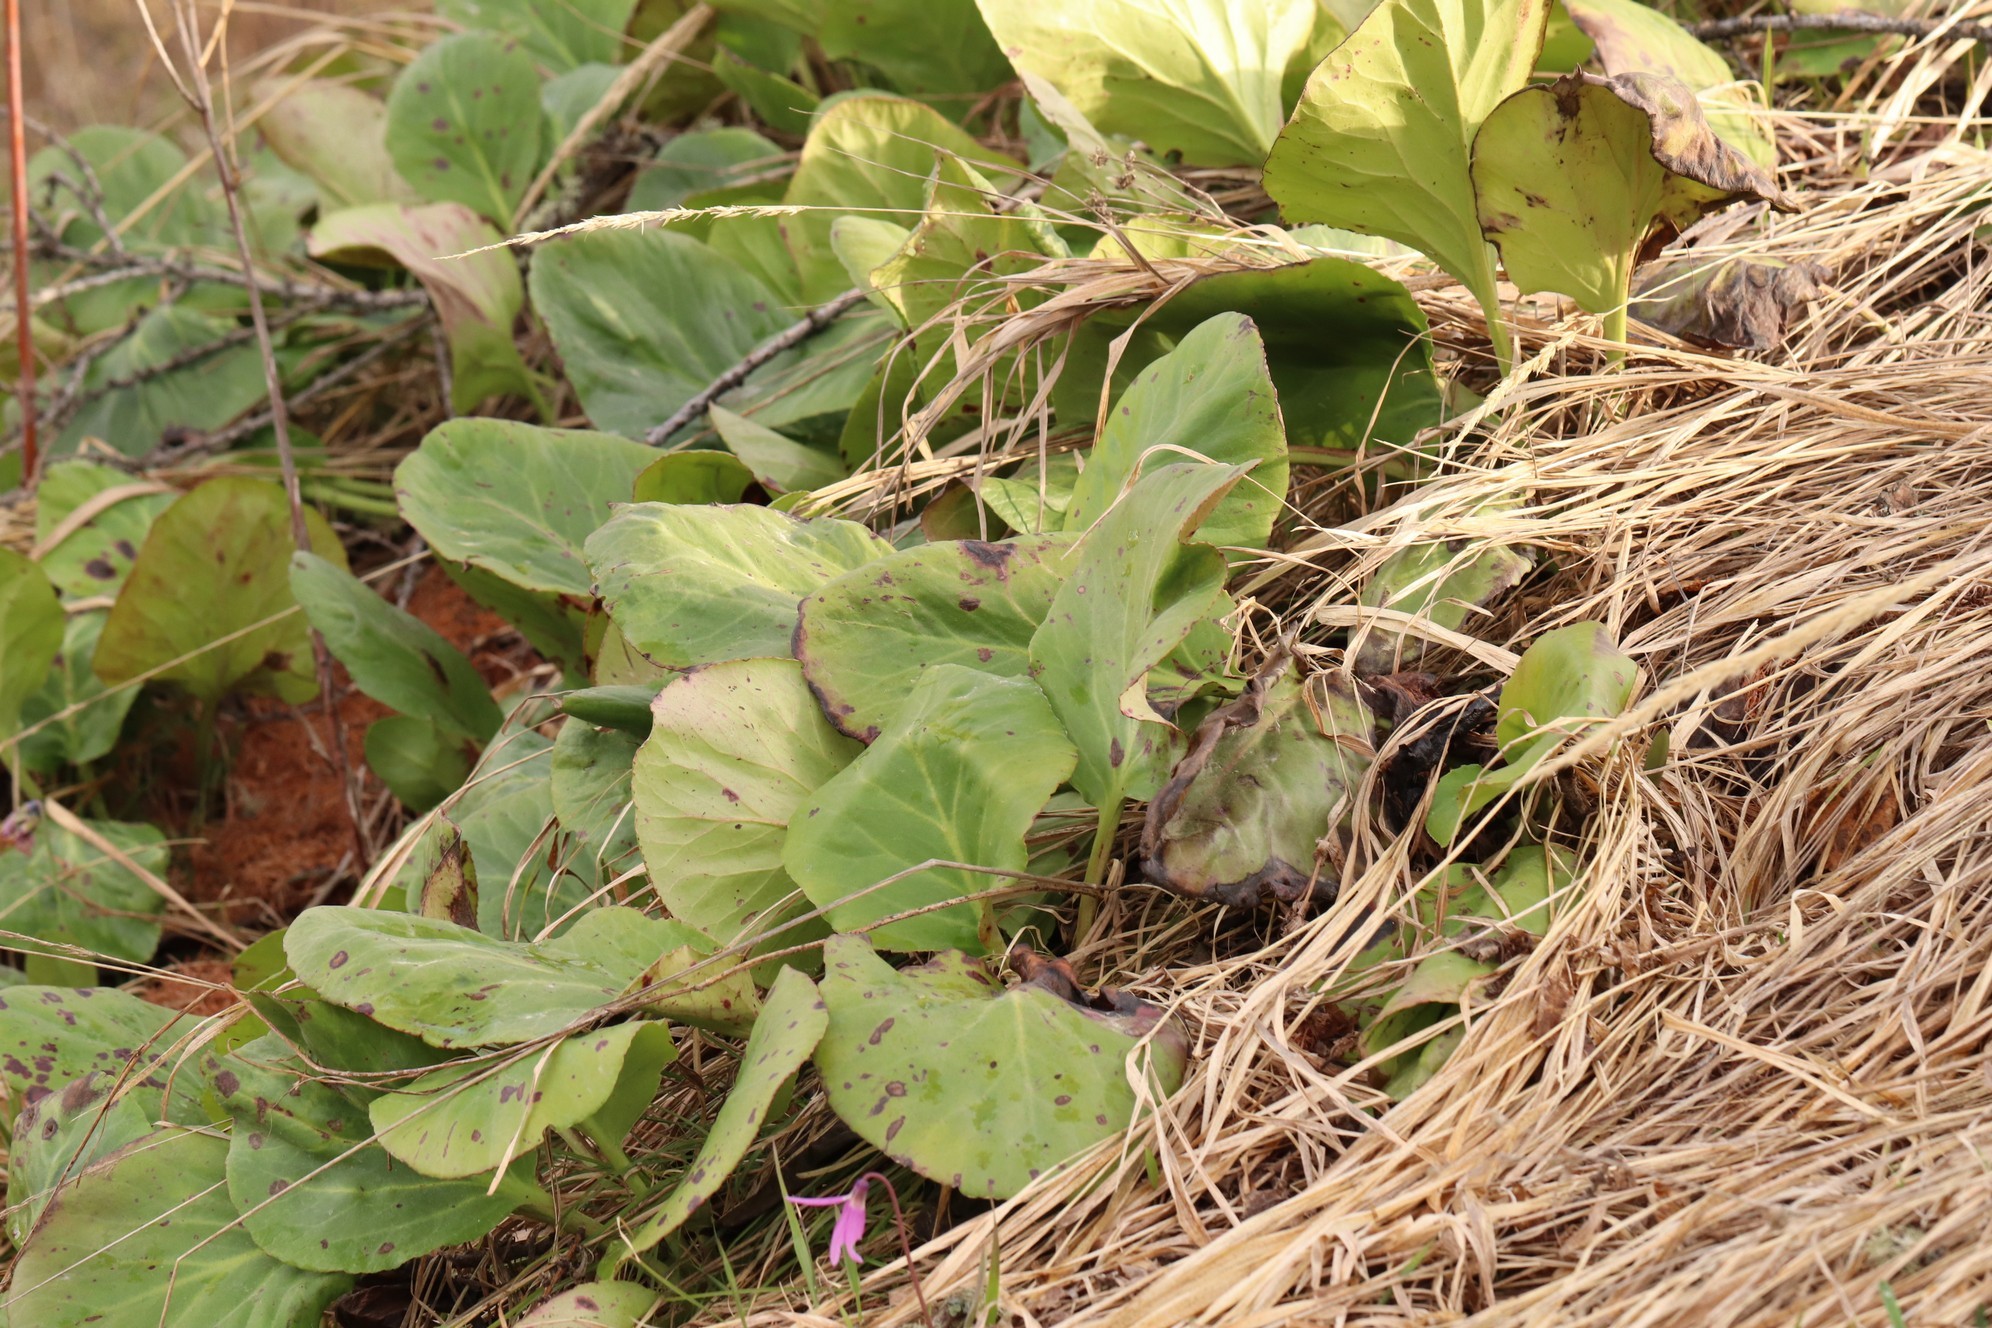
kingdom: Plantae
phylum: Tracheophyta
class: Magnoliopsida
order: Saxifragales
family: Saxifragaceae
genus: Bergenia
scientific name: Bergenia crassifolia
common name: Elephant-ears
